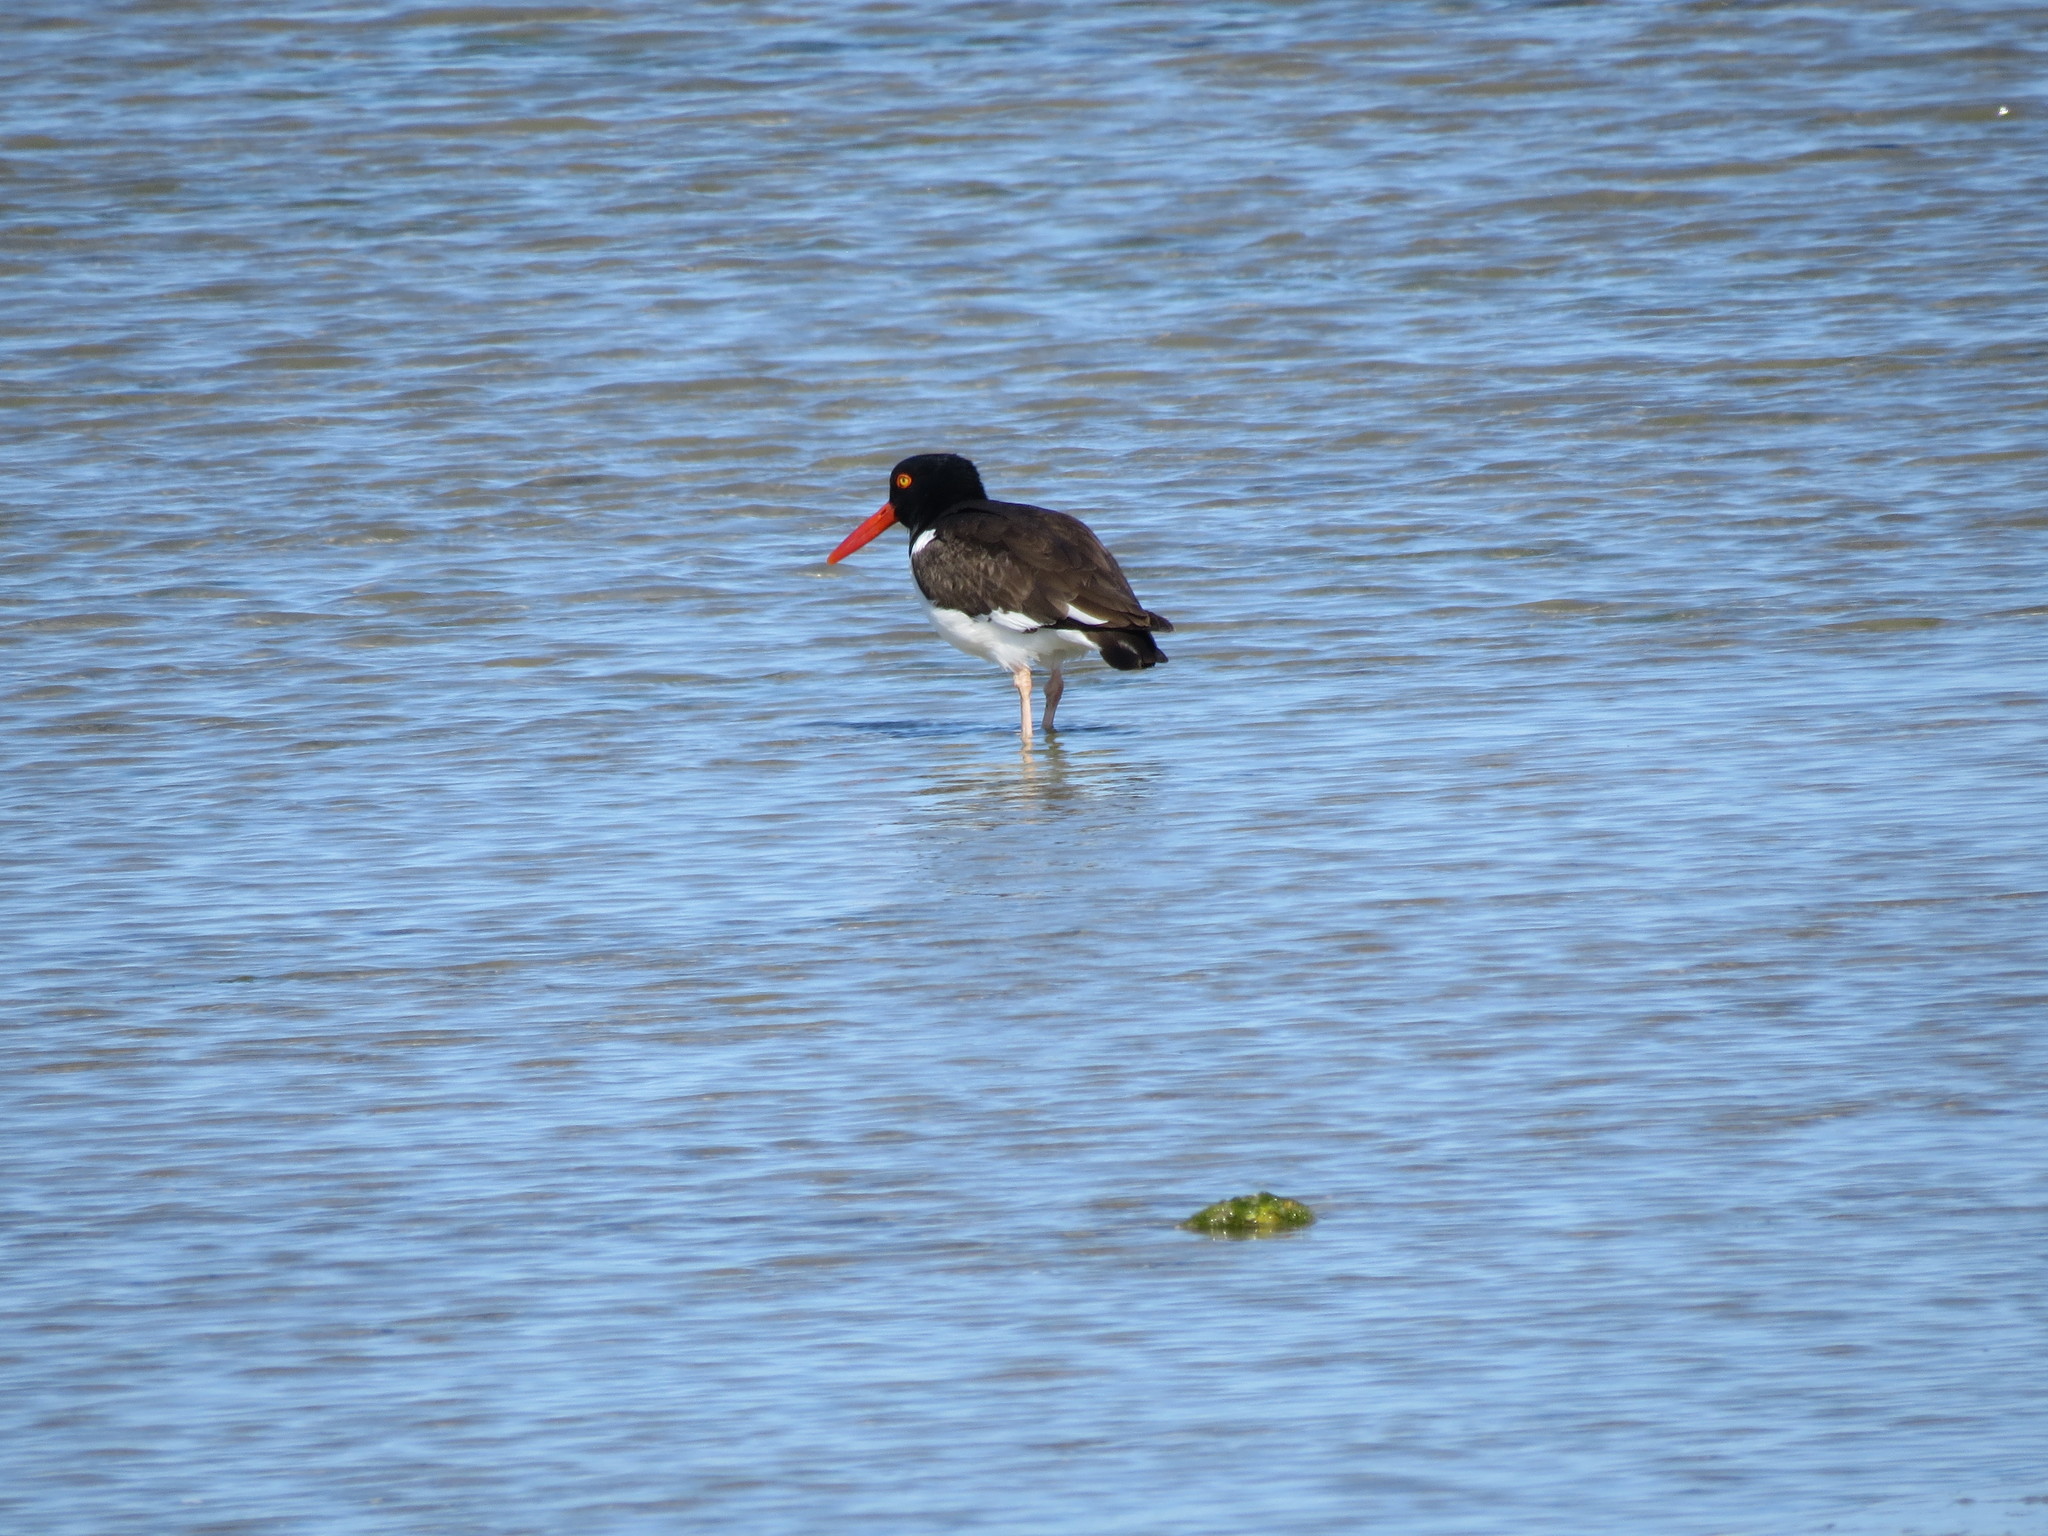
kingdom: Animalia
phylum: Chordata
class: Aves
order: Charadriiformes
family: Haematopodidae
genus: Haematopus
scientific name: Haematopus palliatus
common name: American oystercatcher
